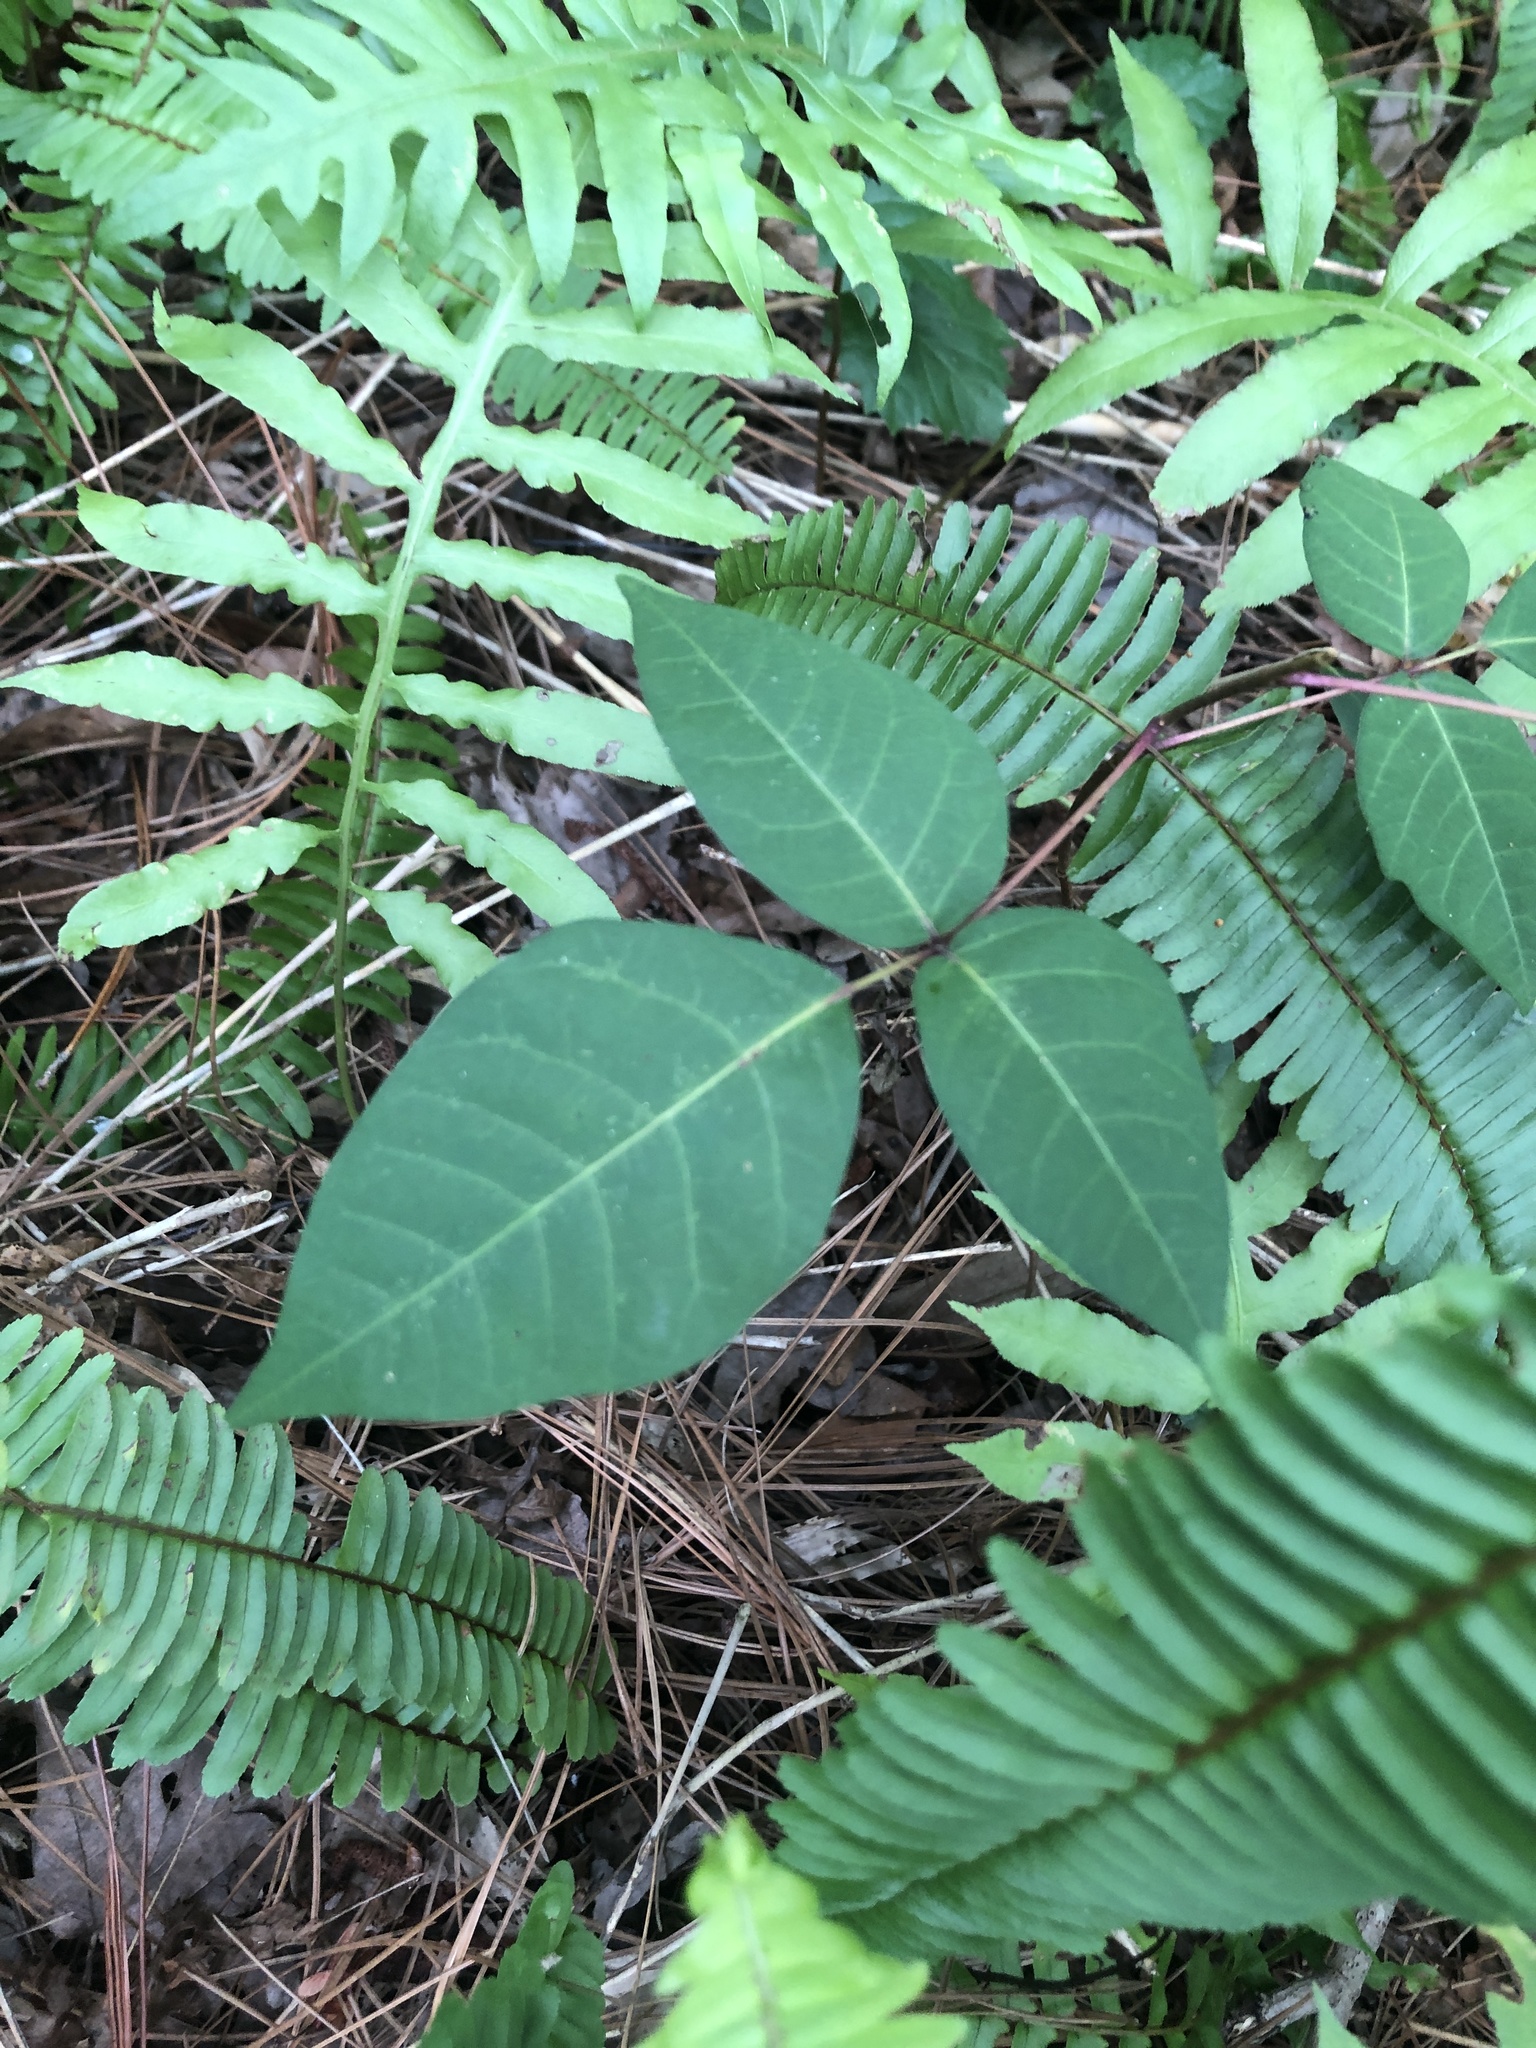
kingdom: Plantae
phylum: Tracheophyta
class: Magnoliopsida
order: Sapindales
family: Anacardiaceae
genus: Toxicodendron
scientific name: Toxicodendron radicans
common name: Poison ivy
